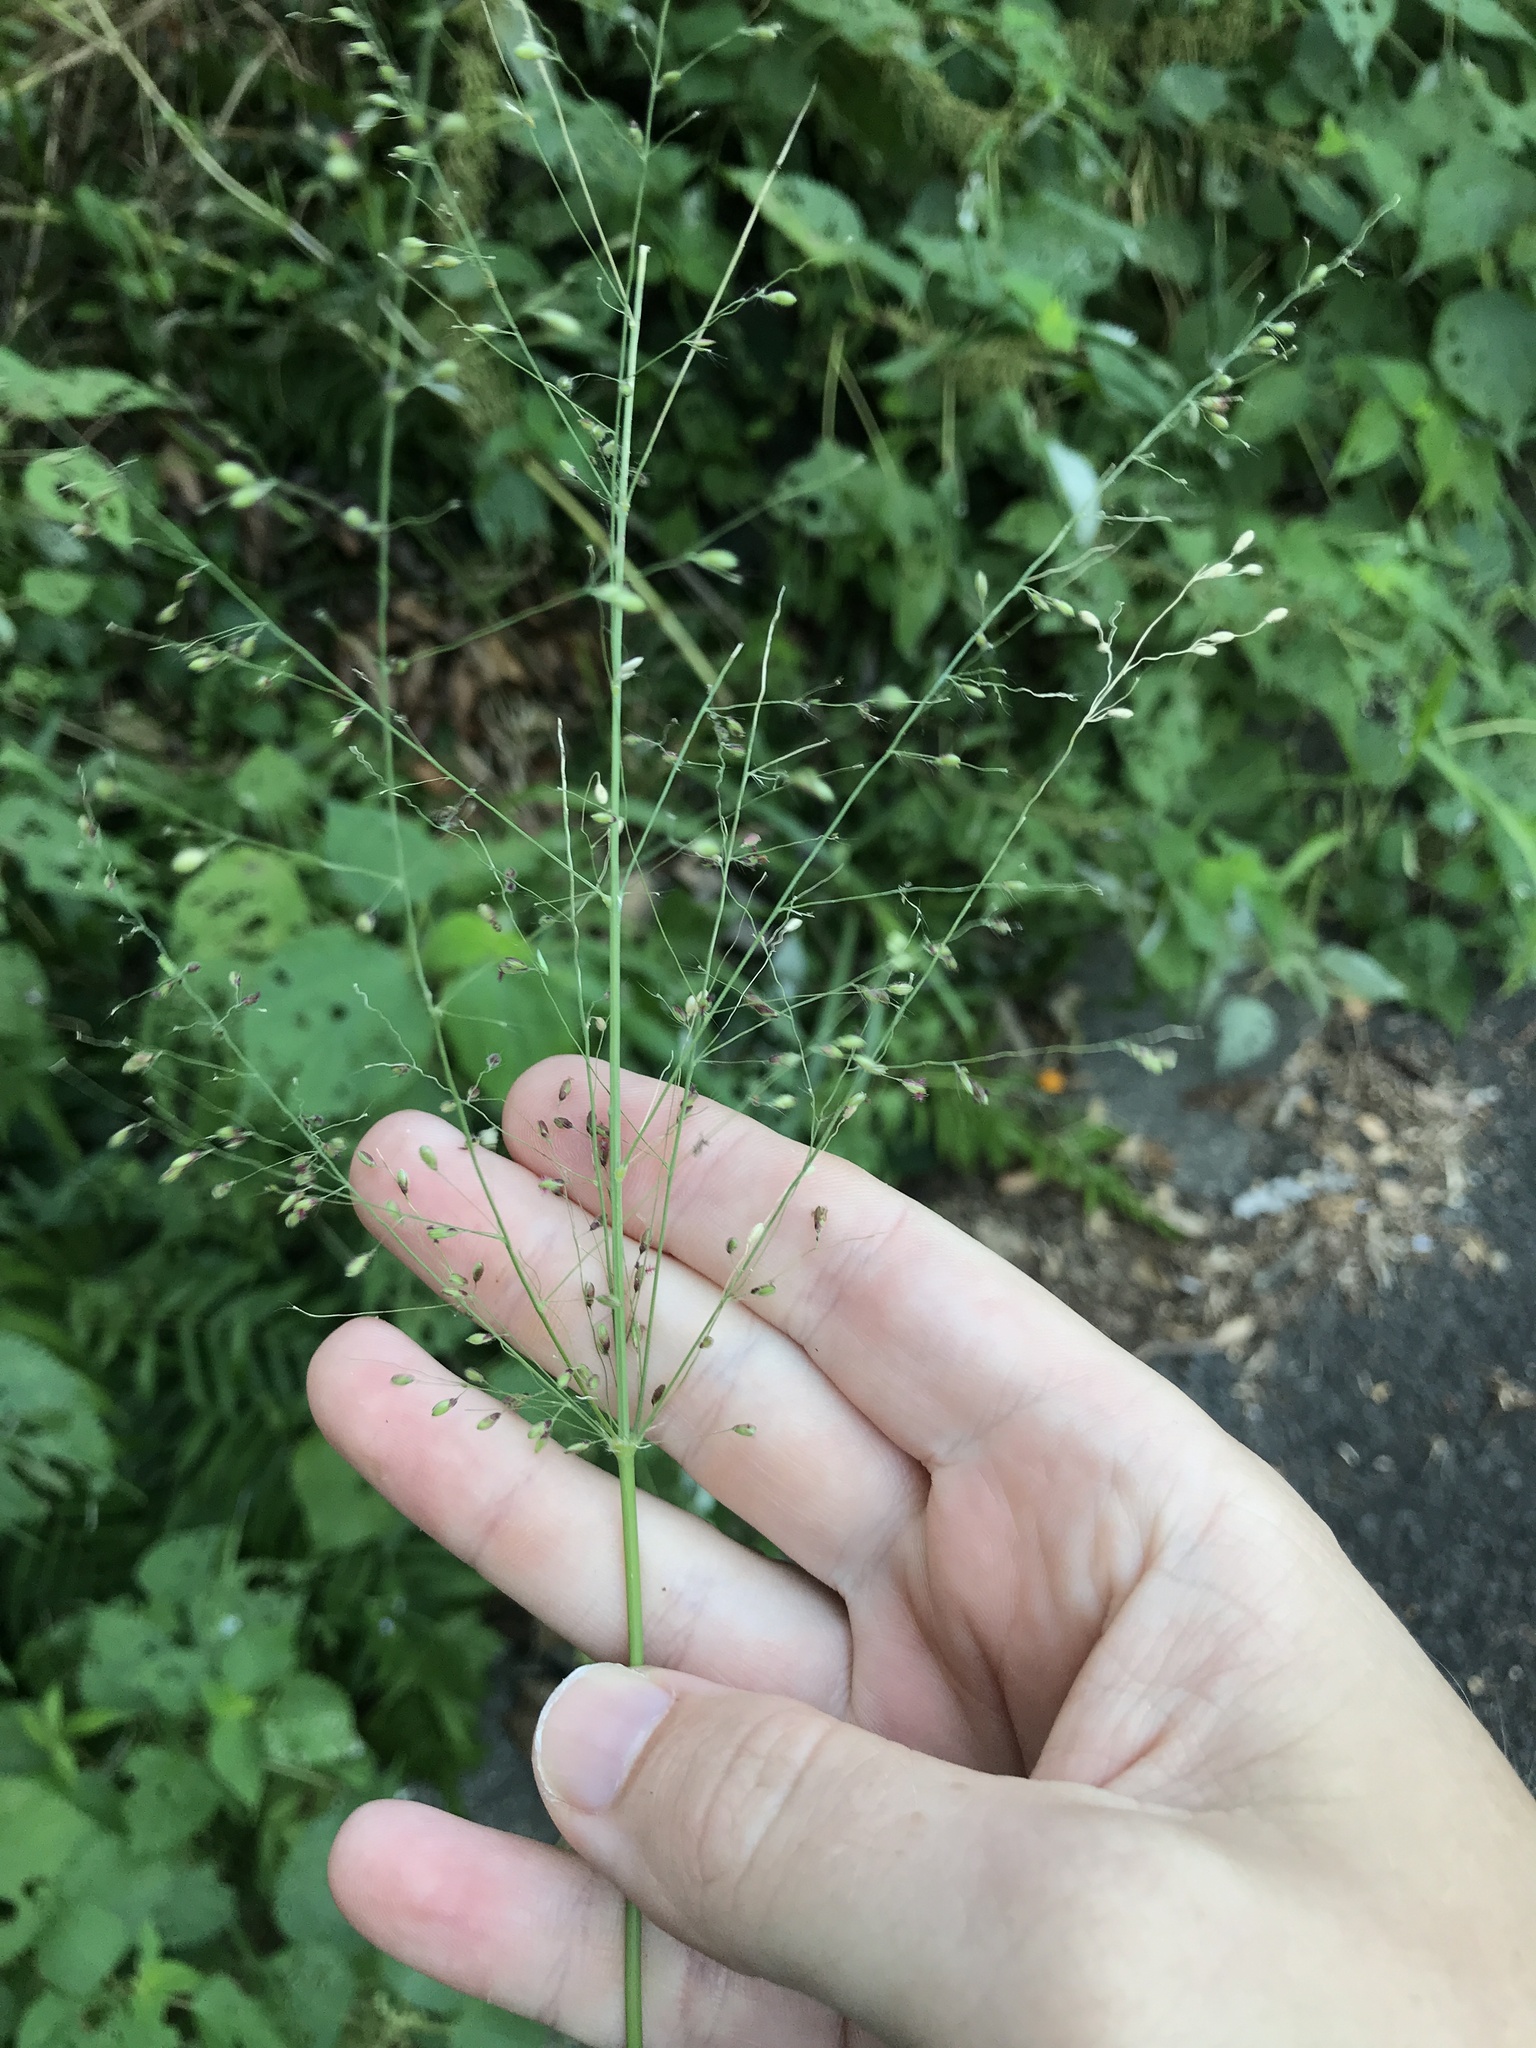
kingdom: Plantae
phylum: Tracheophyta
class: Liliopsida
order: Poales
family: Poaceae
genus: Panicum
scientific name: Panicum capillare
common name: Witch-grass
